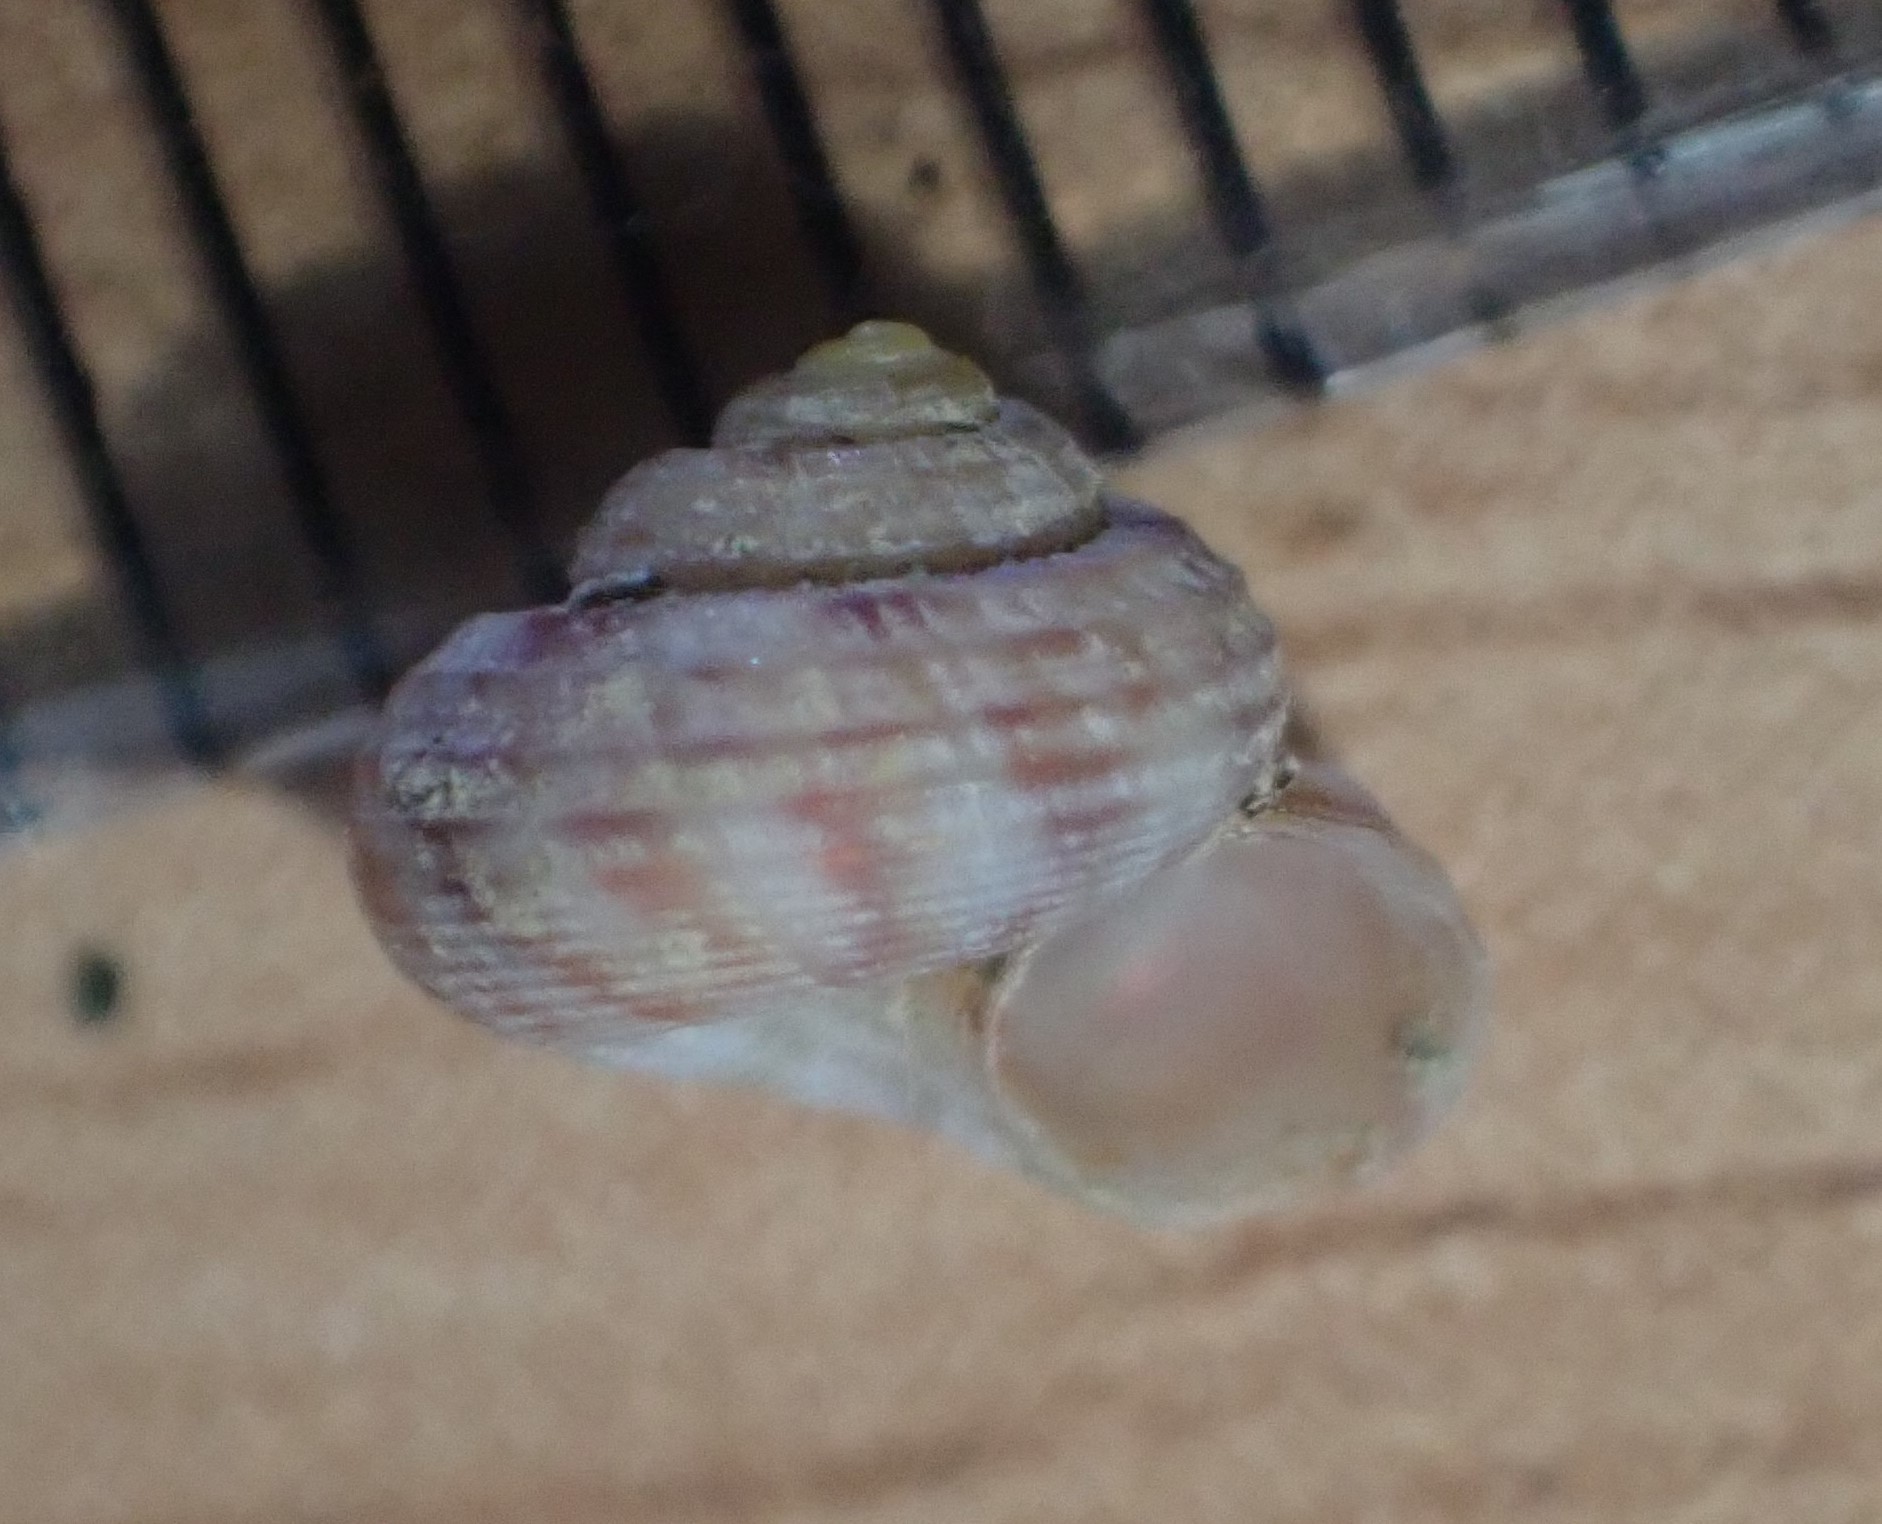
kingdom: Animalia
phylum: Mollusca
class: Gastropoda
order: Trochida
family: Solariellidae
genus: Spectamen
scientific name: Spectamen tryphenense
